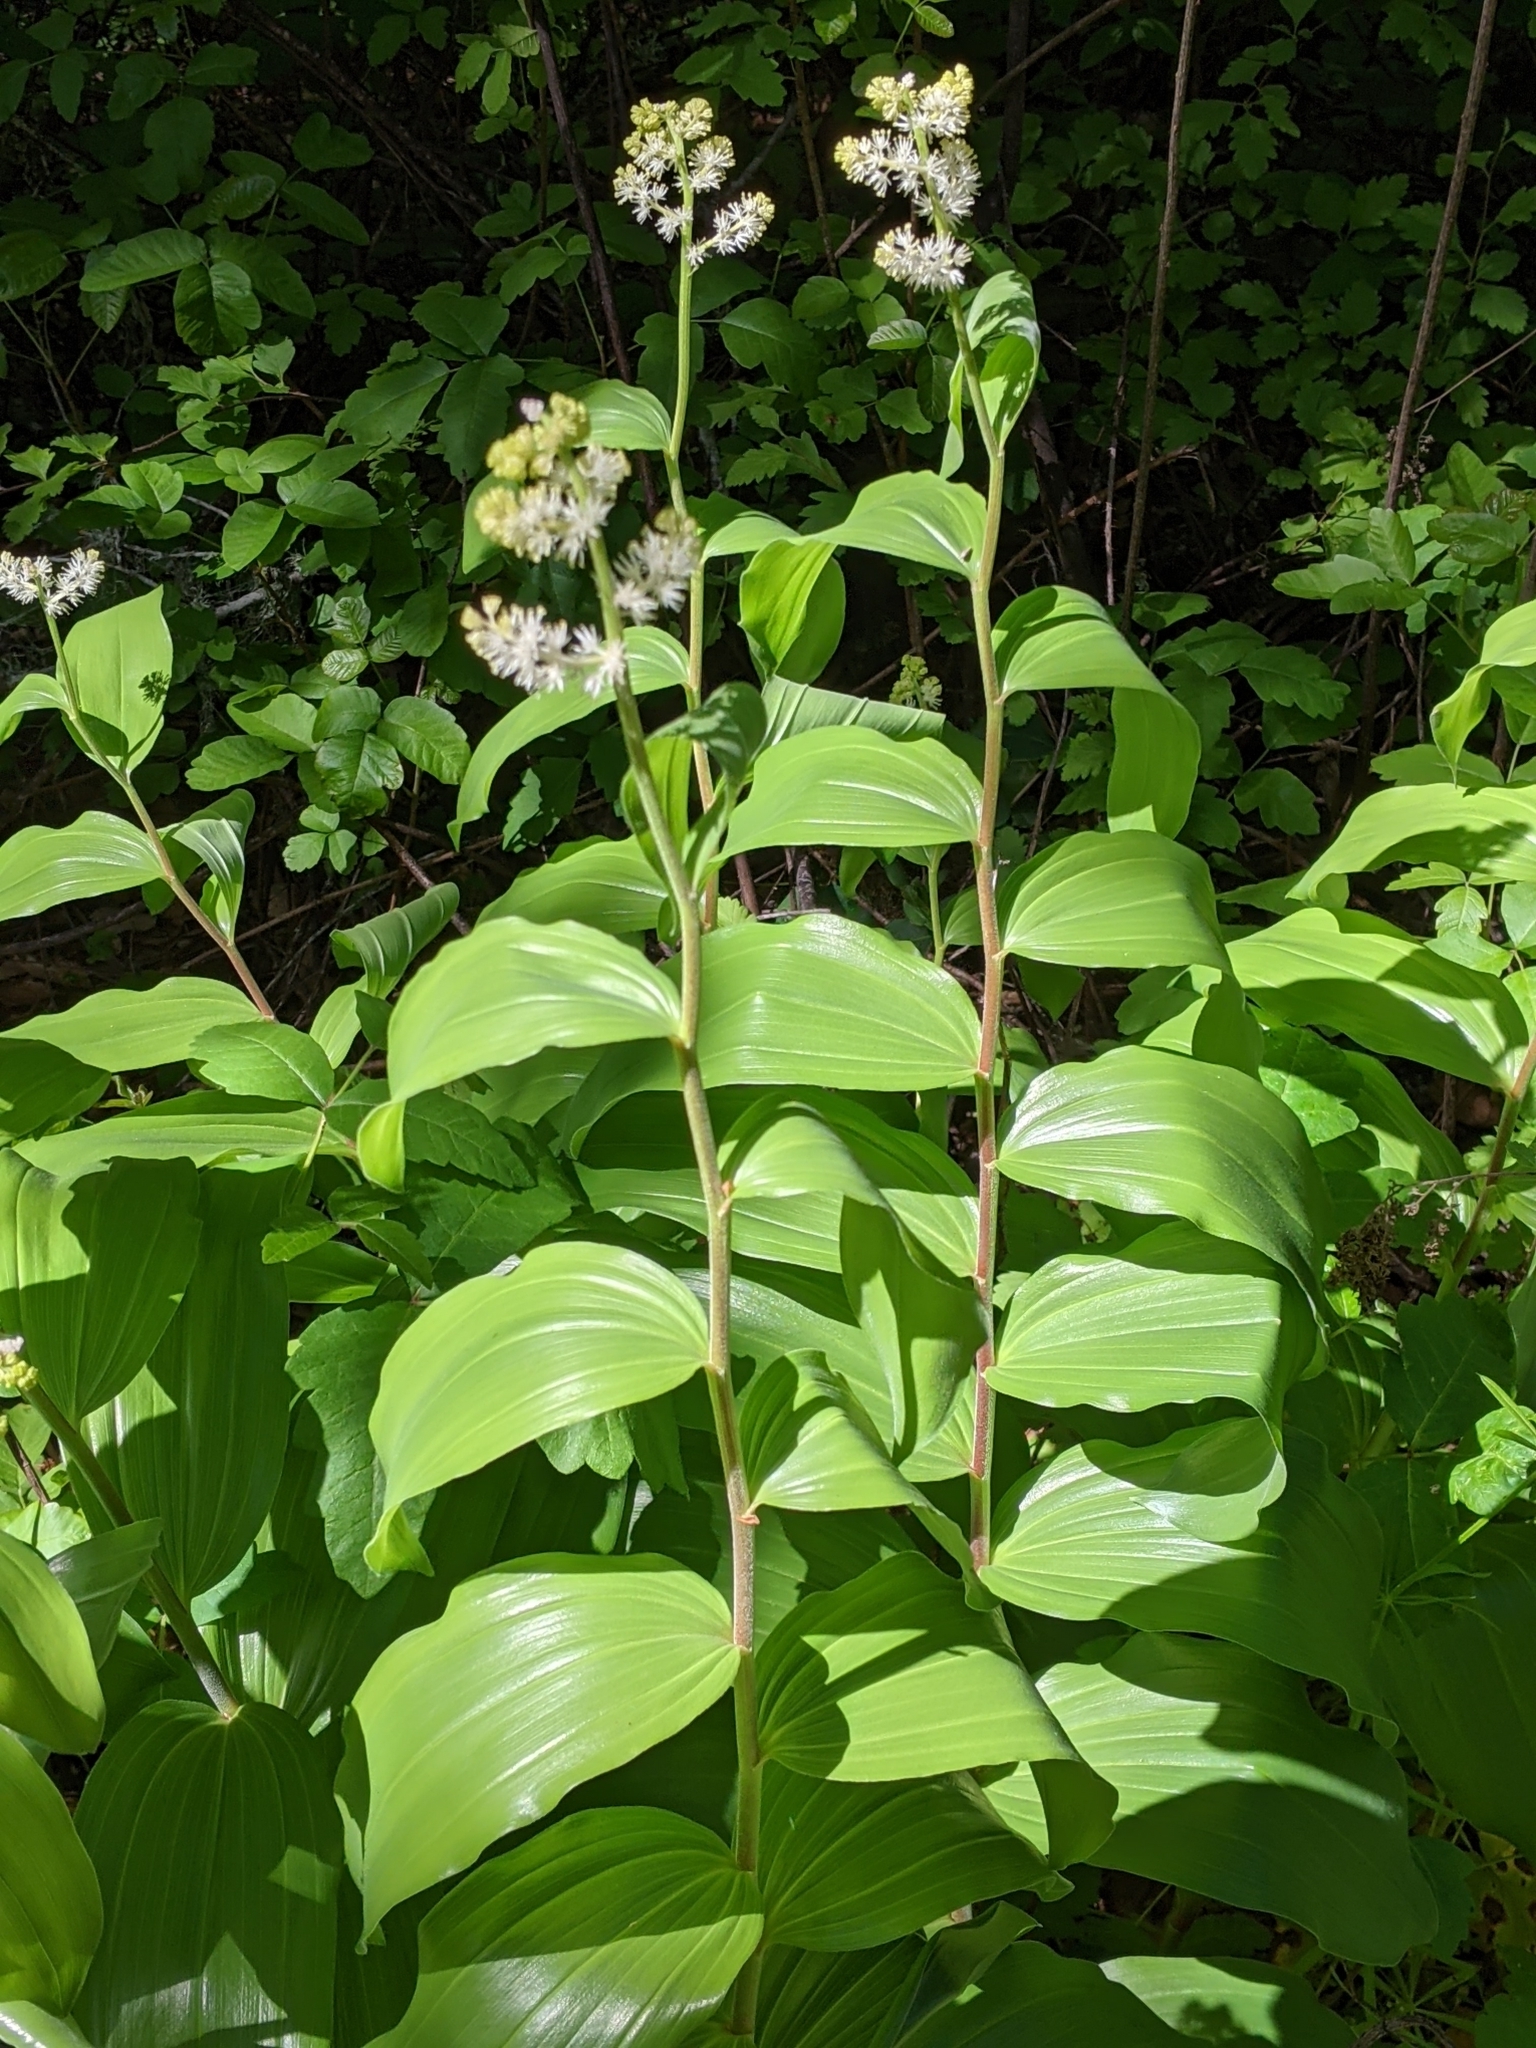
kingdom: Plantae
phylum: Tracheophyta
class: Liliopsida
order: Asparagales
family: Asparagaceae
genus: Maianthemum
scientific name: Maianthemum racemosum
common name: False spikenard
